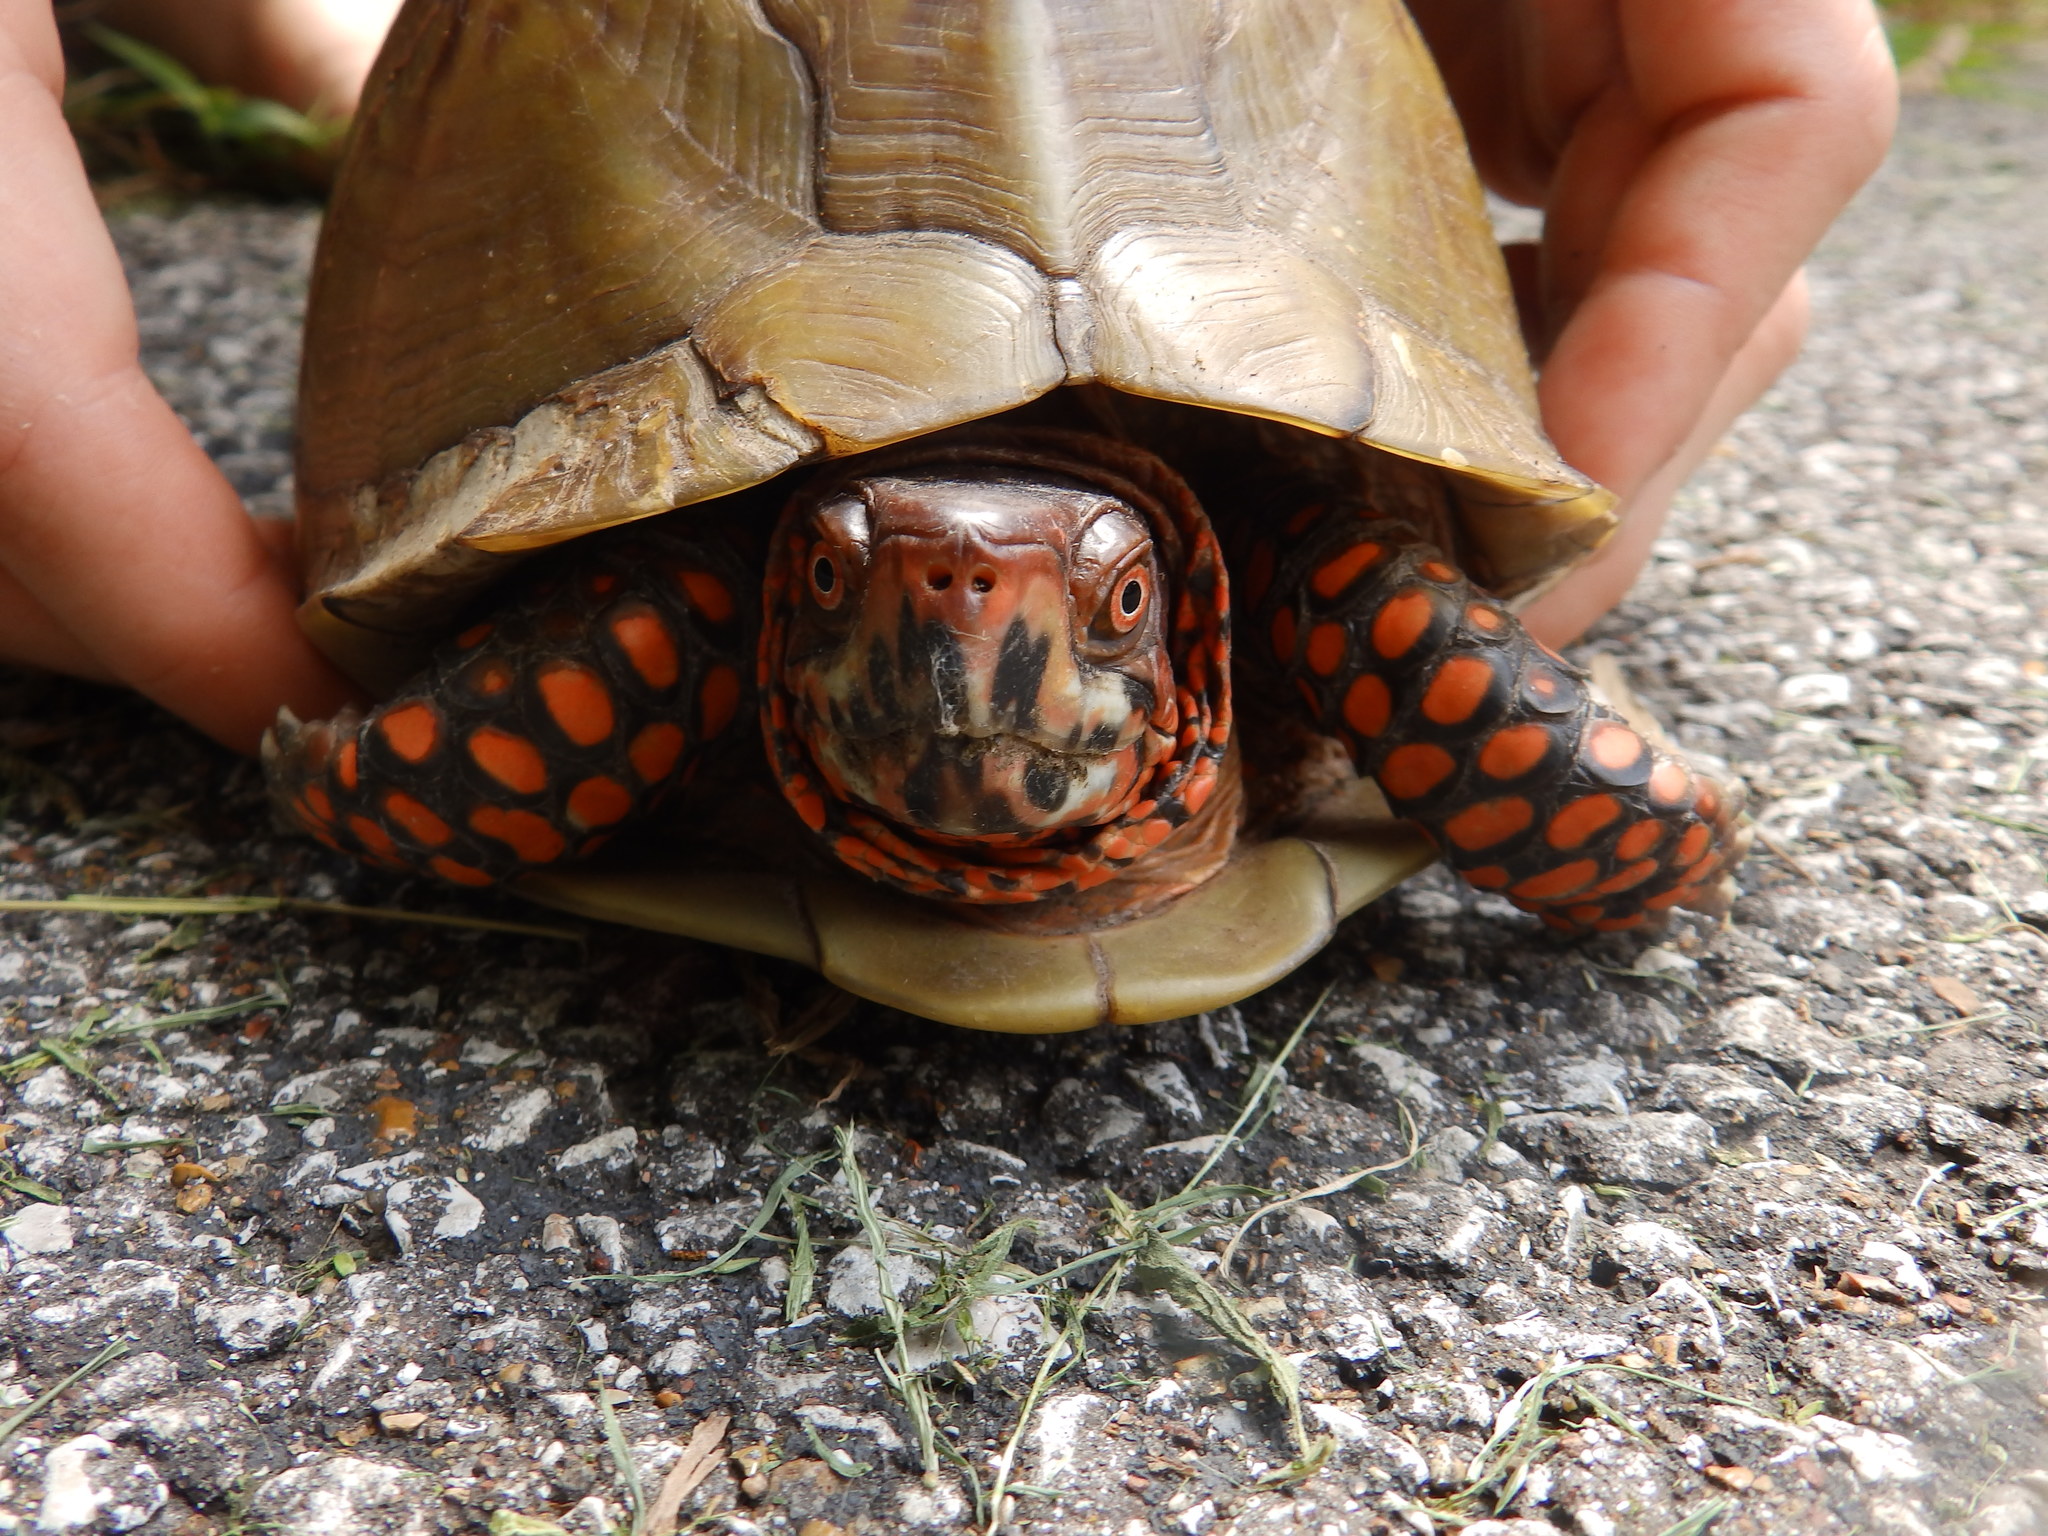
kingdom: Animalia
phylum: Chordata
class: Testudines
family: Emydidae
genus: Terrapene
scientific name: Terrapene carolina
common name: Common box turtle
